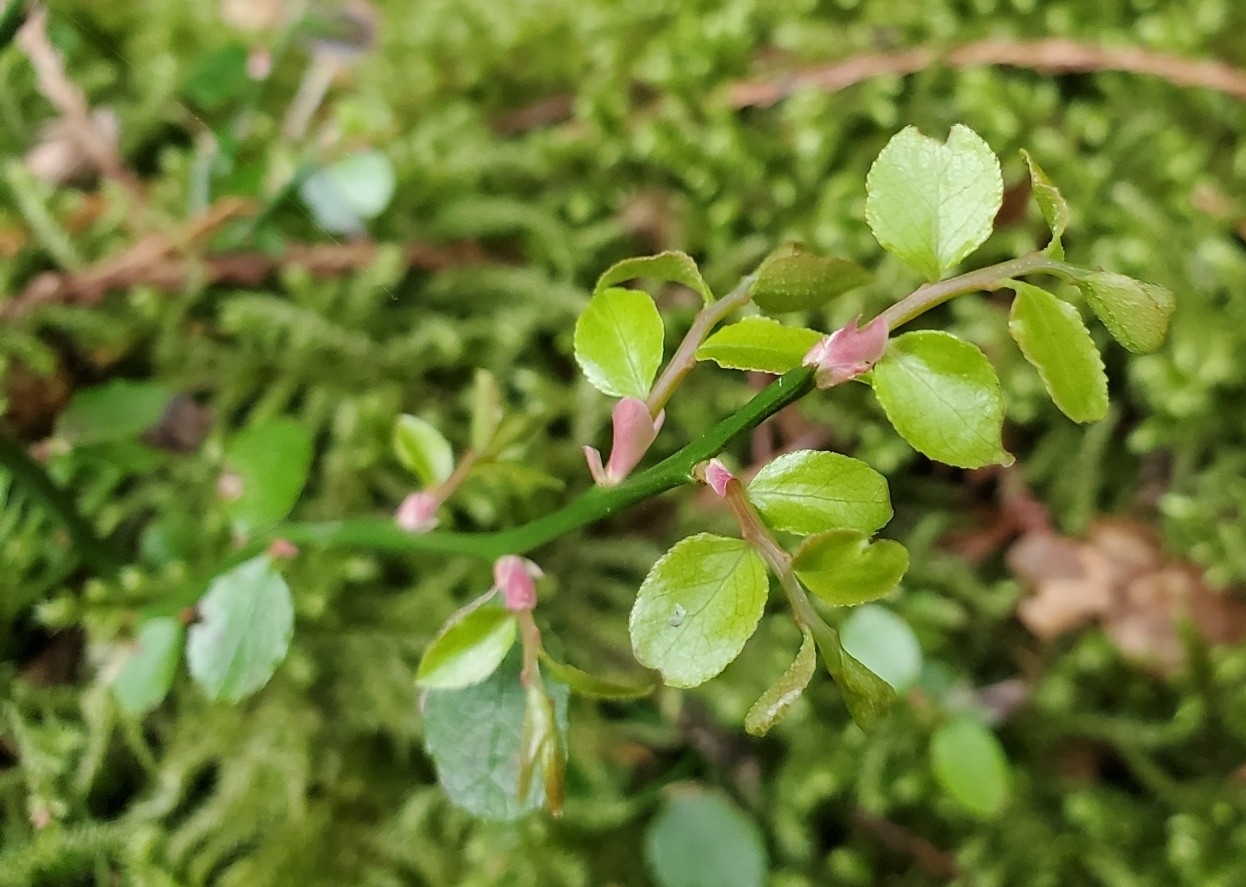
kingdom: Plantae
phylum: Tracheophyta
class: Magnoliopsida
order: Ericales
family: Ericaceae
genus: Vaccinium
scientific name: Vaccinium parvifolium
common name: Red-huckleberry
